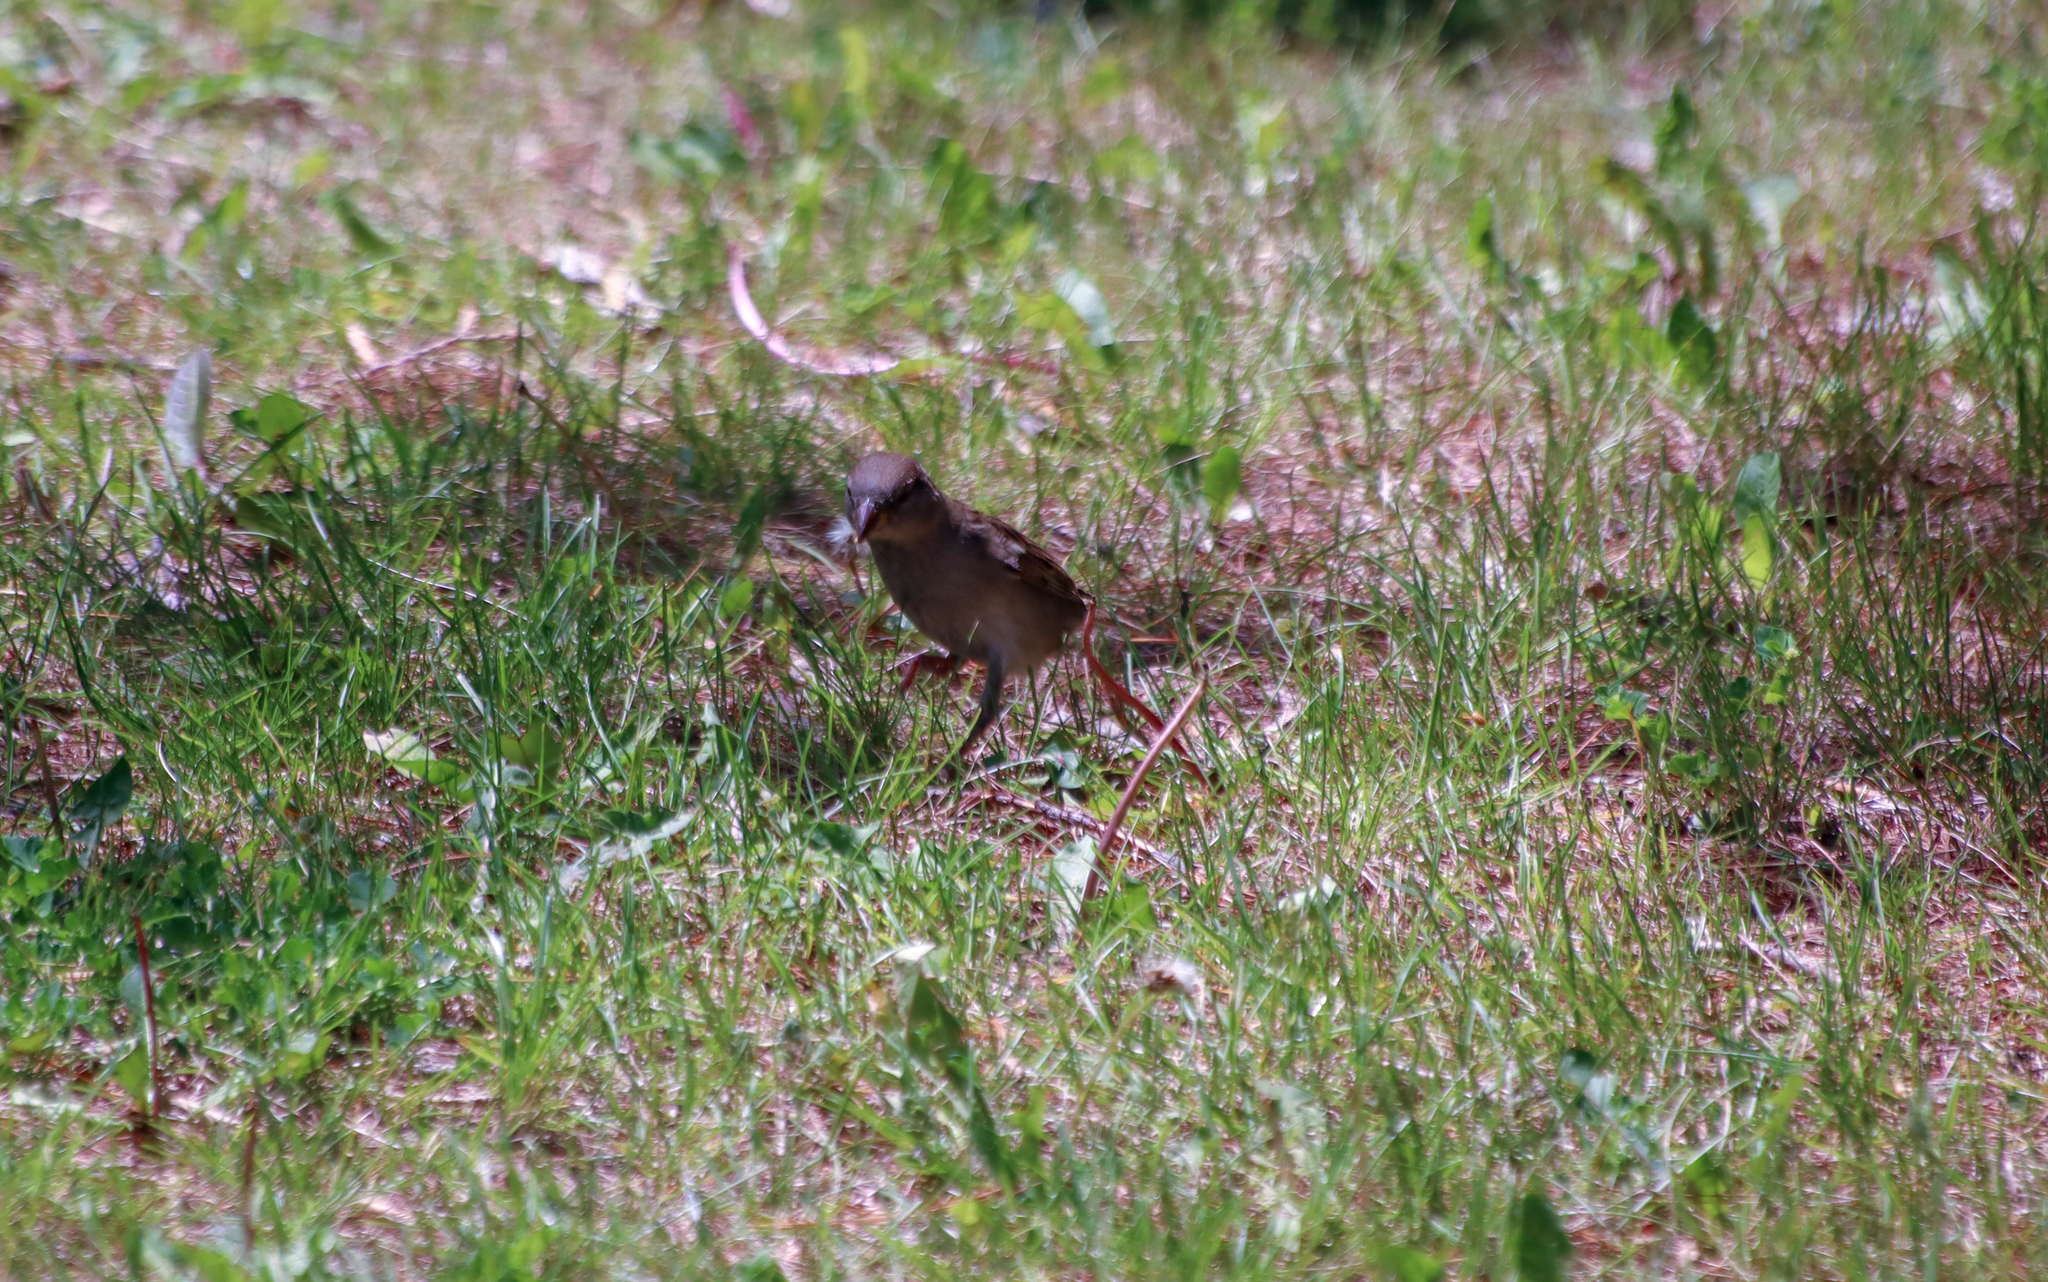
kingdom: Animalia
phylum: Chordata
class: Aves
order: Passeriformes
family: Passeridae
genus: Passer
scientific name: Passer domesticus
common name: House sparrow
